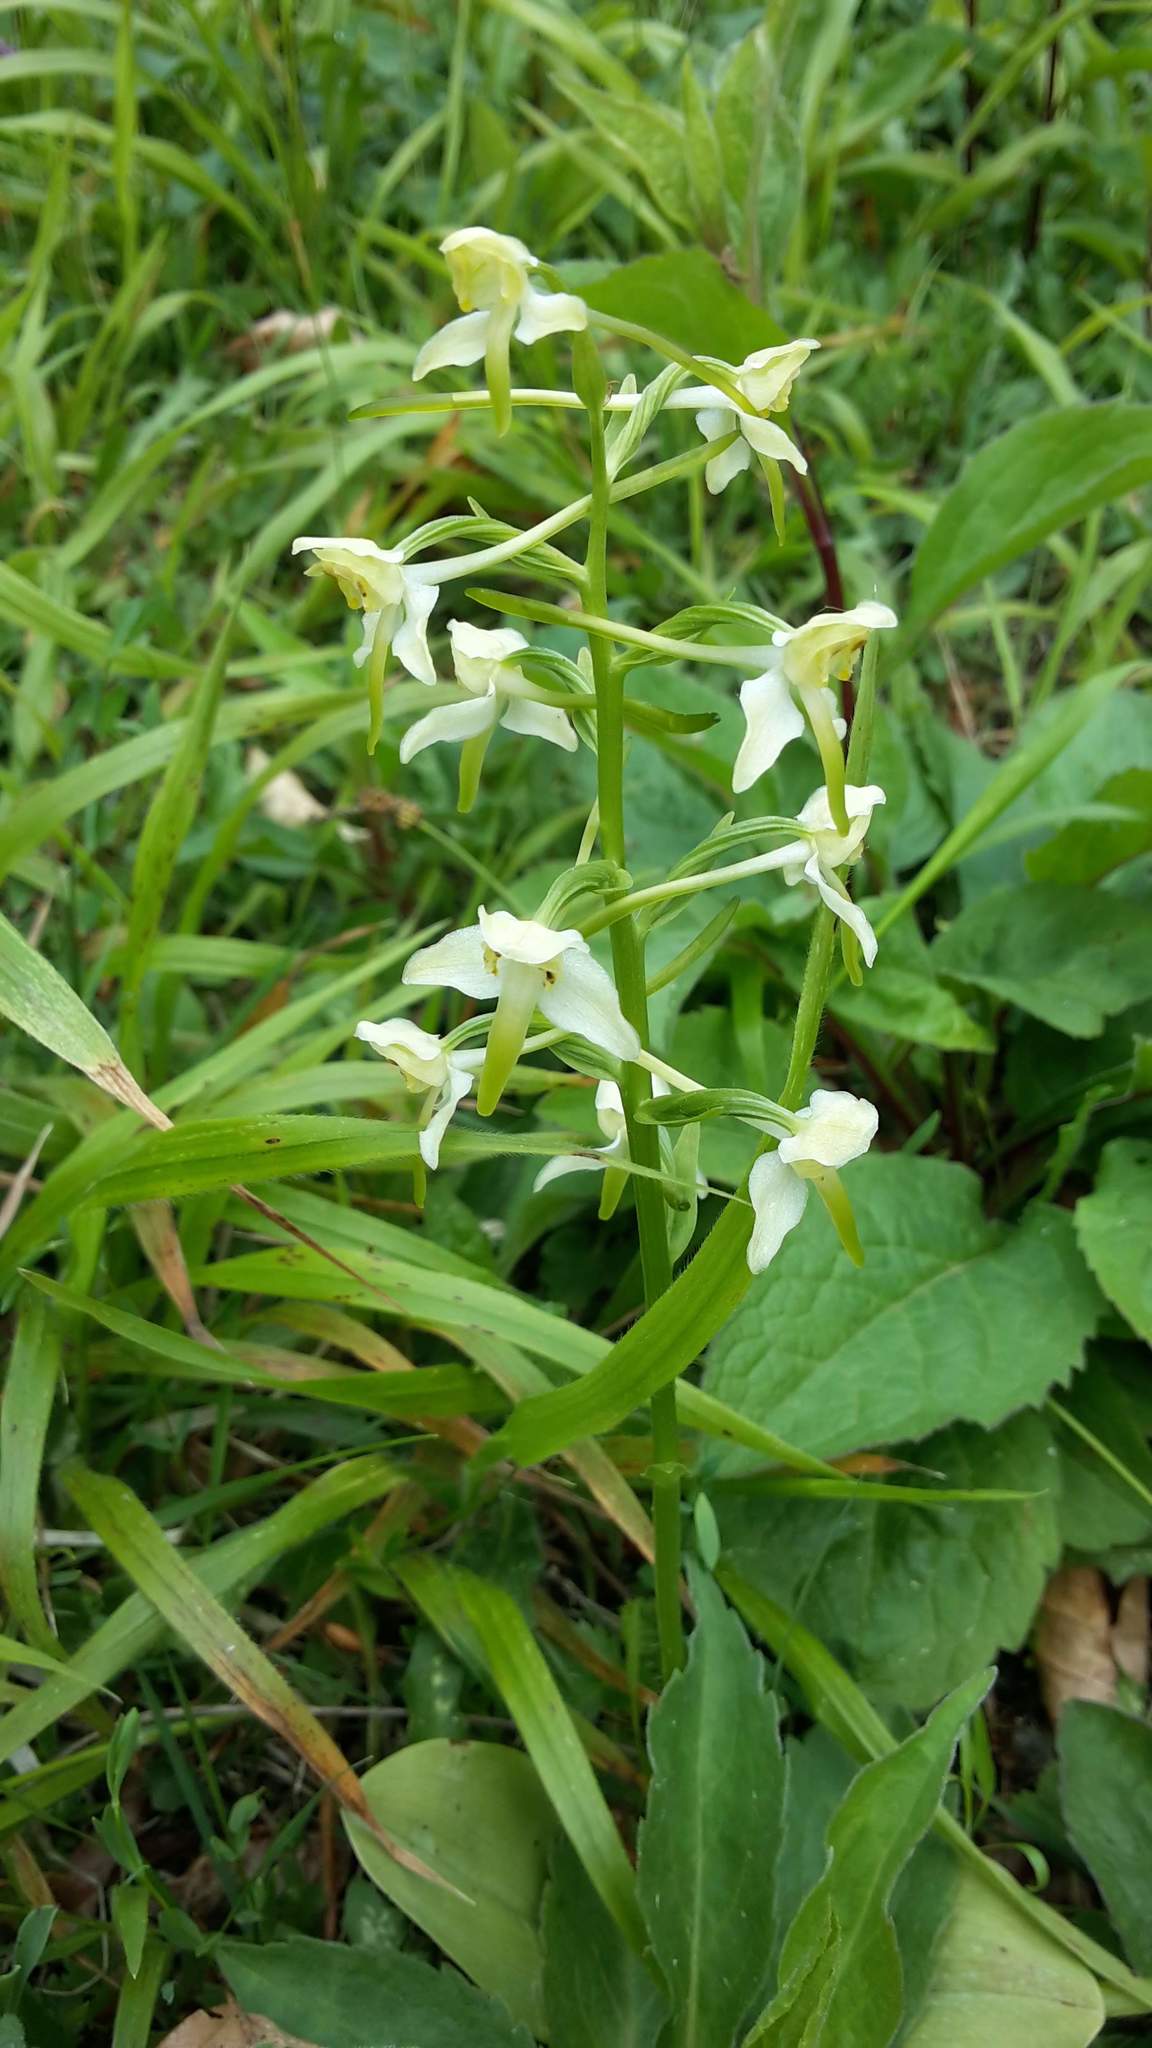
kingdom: Plantae
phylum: Tracheophyta
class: Liliopsida
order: Asparagales
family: Orchidaceae
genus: Platanthera
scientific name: Platanthera chlorantha
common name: Greater butterfly-orchid
